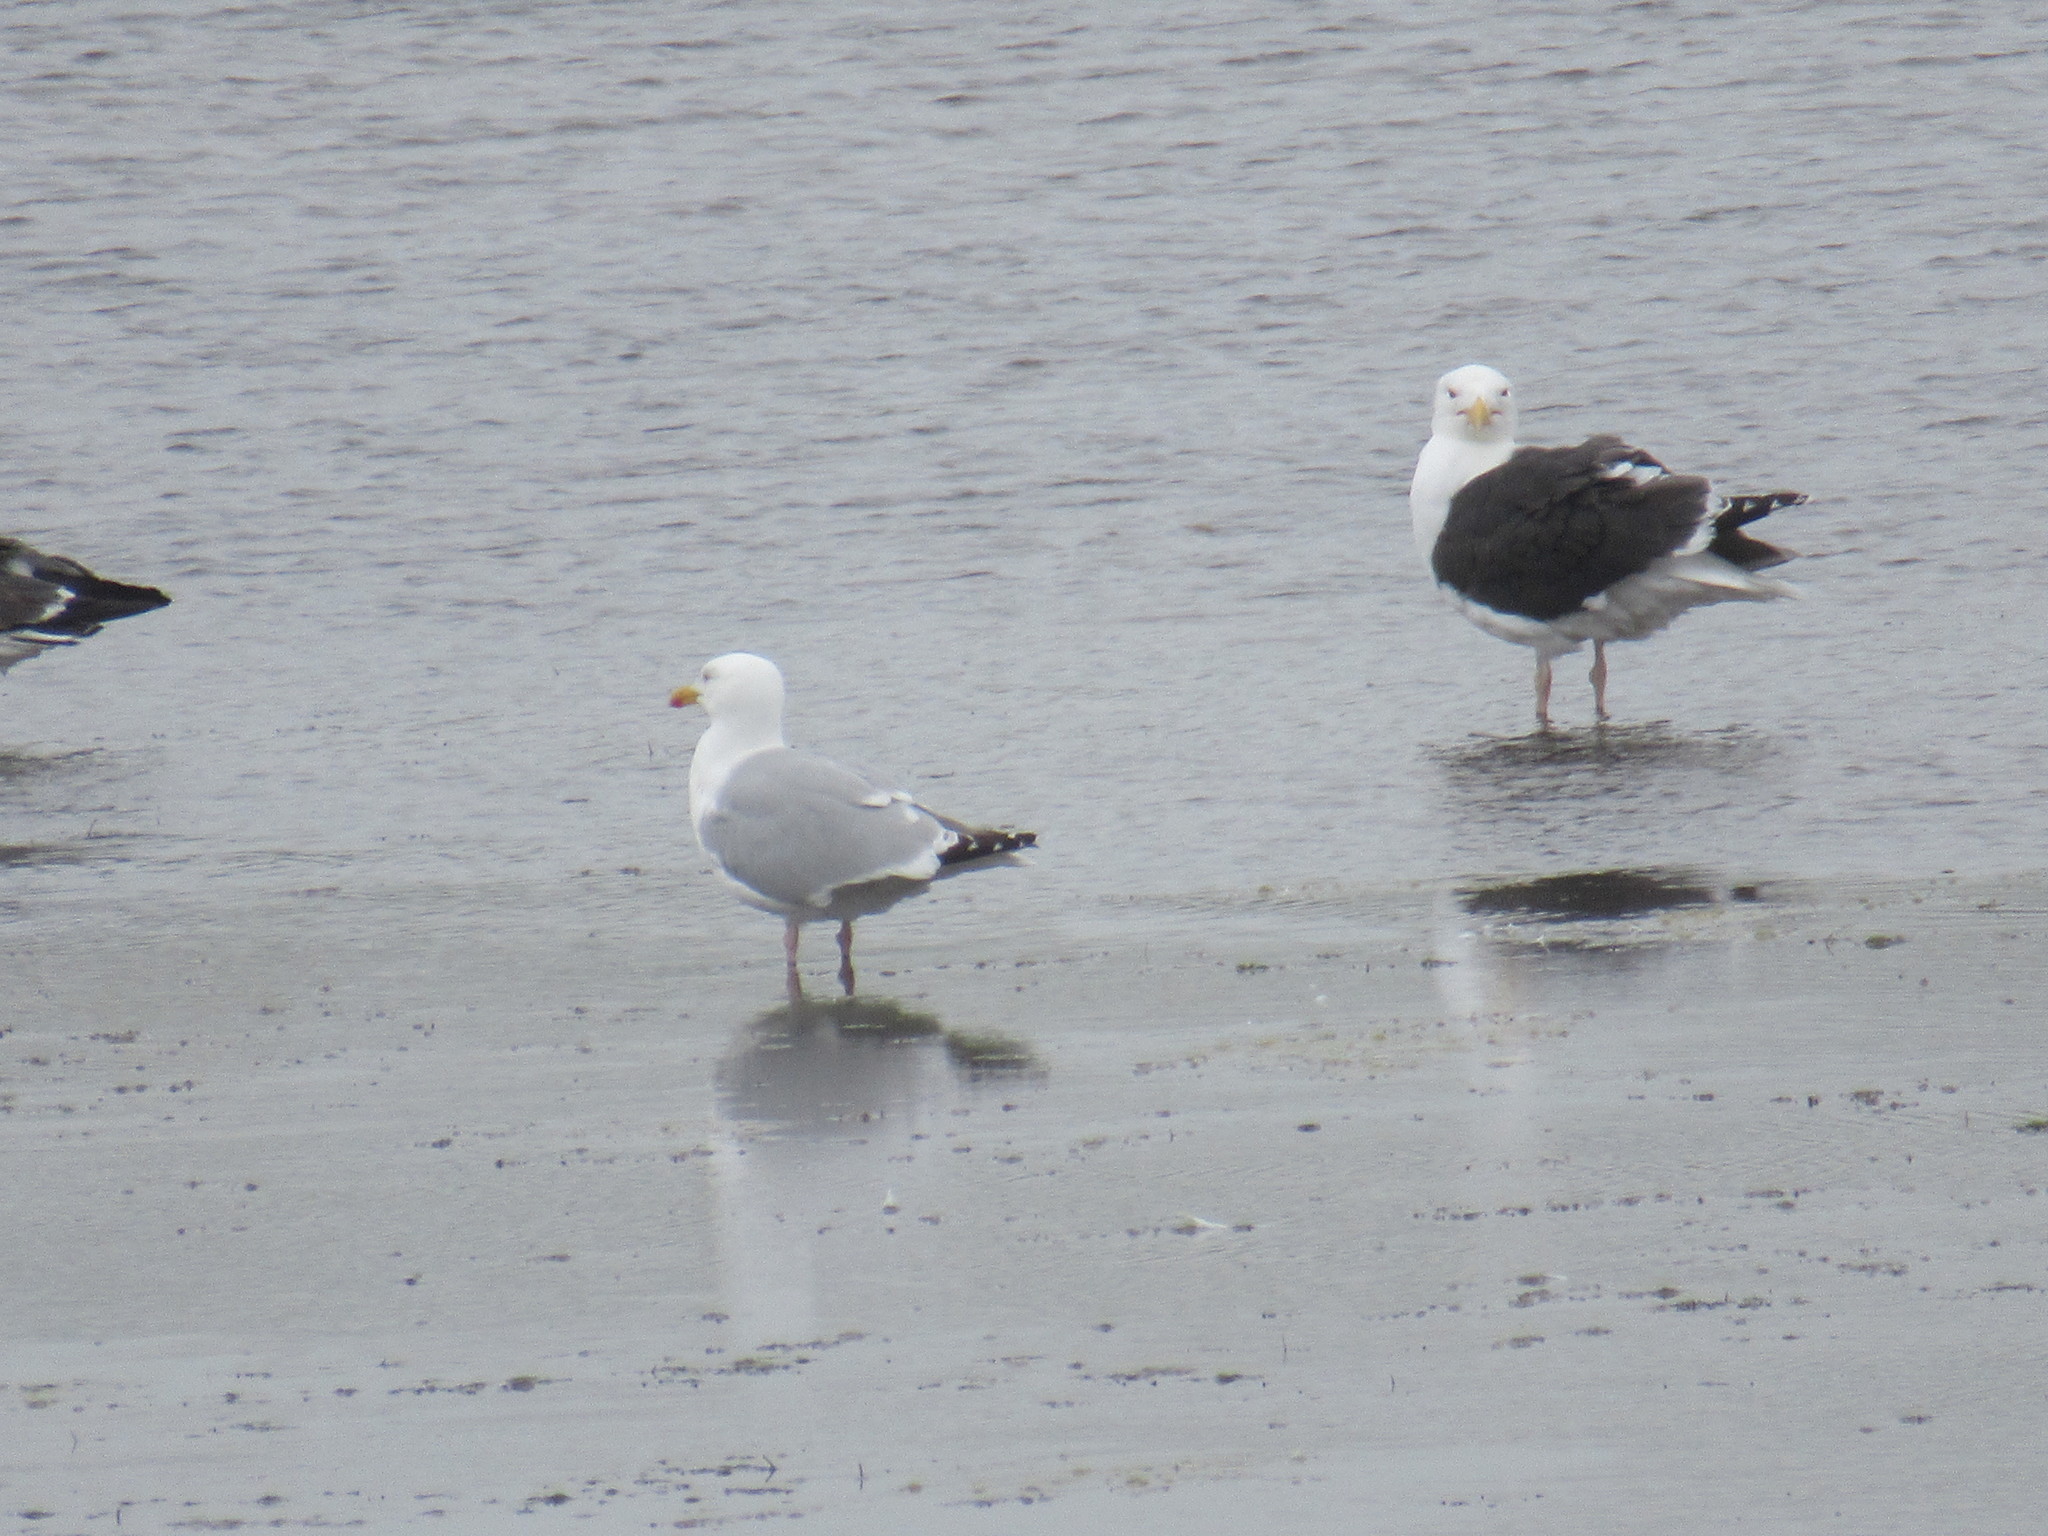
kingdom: Animalia
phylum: Chordata
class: Aves
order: Charadriiformes
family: Laridae
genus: Larus
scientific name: Larus marinus
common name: Great black-backed gull
